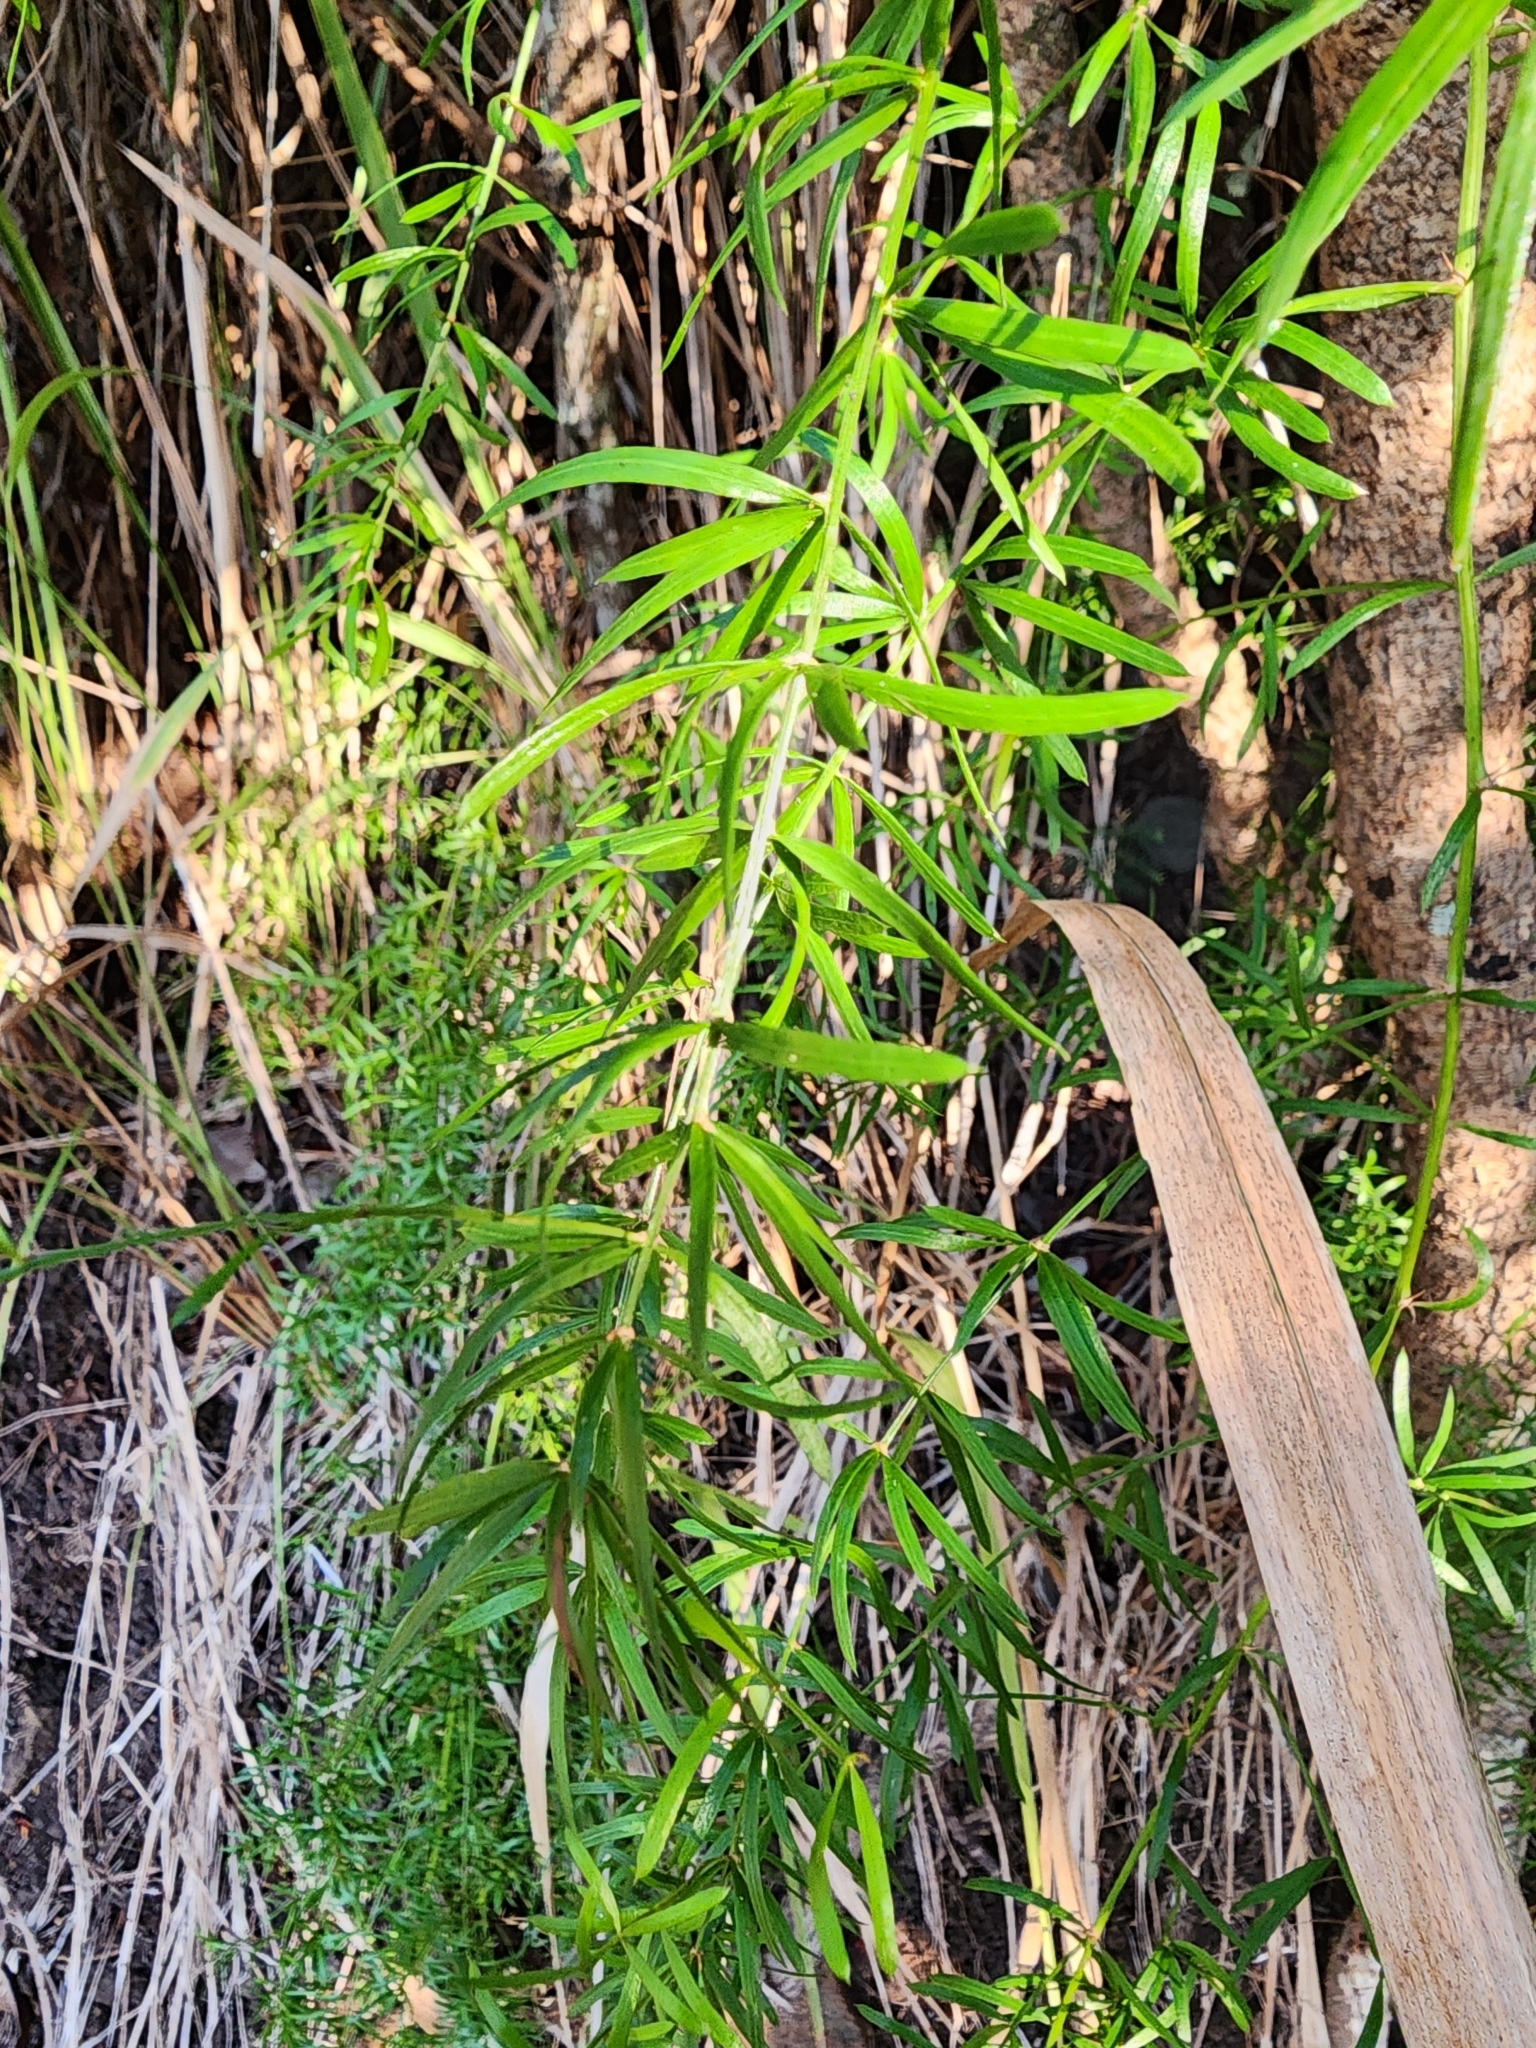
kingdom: Plantae
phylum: Tracheophyta
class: Liliopsida
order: Asparagales
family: Asparagaceae
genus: Asparagus
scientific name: Asparagus aethiopicus
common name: Sprenger's asparagus fern
